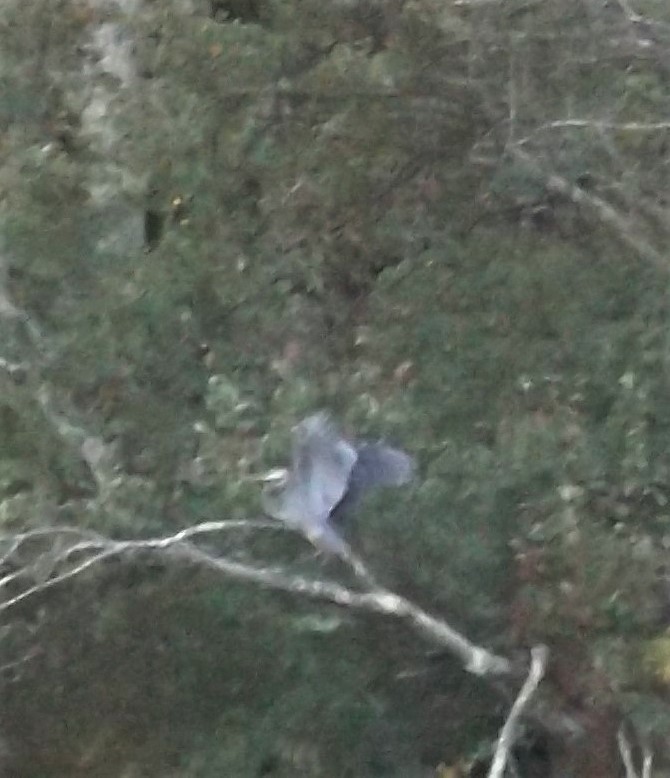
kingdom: Animalia
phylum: Chordata
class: Aves
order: Pelecaniformes
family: Ardeidae
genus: Ardea
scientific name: Ardea herodias
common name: Great blue heron
